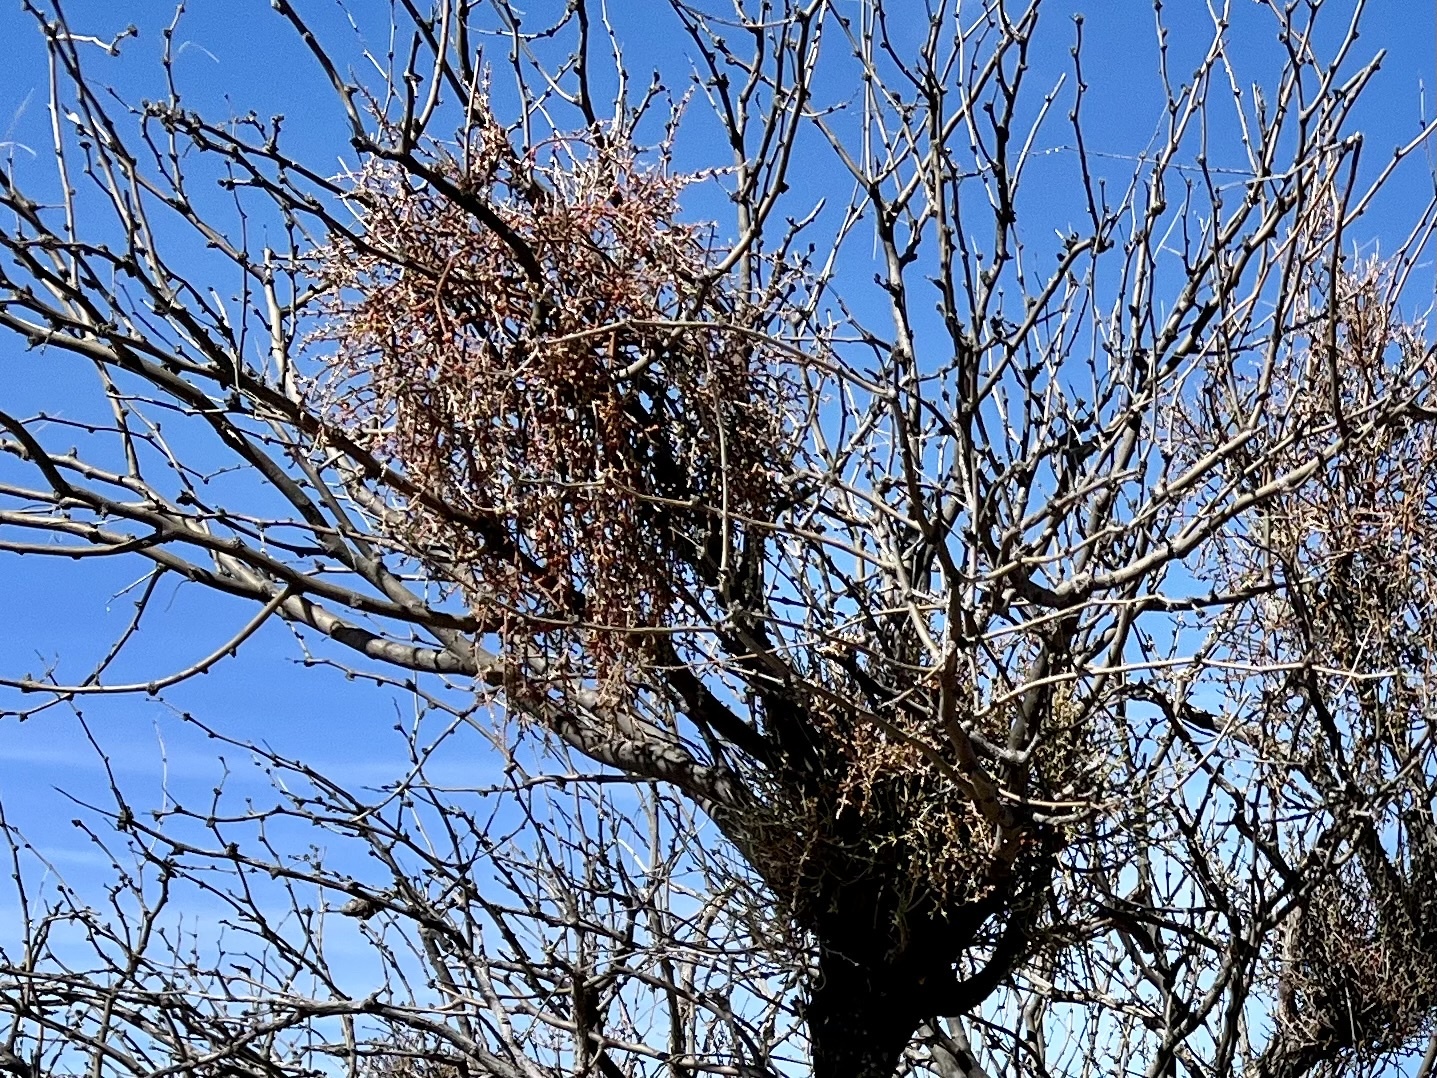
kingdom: Plantae
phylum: Tracheophyta
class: Magnoliopsida
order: Santalales
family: Viscaceae
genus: Phoradendron
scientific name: Phoradendron californicum
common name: Acacia mistletoe
